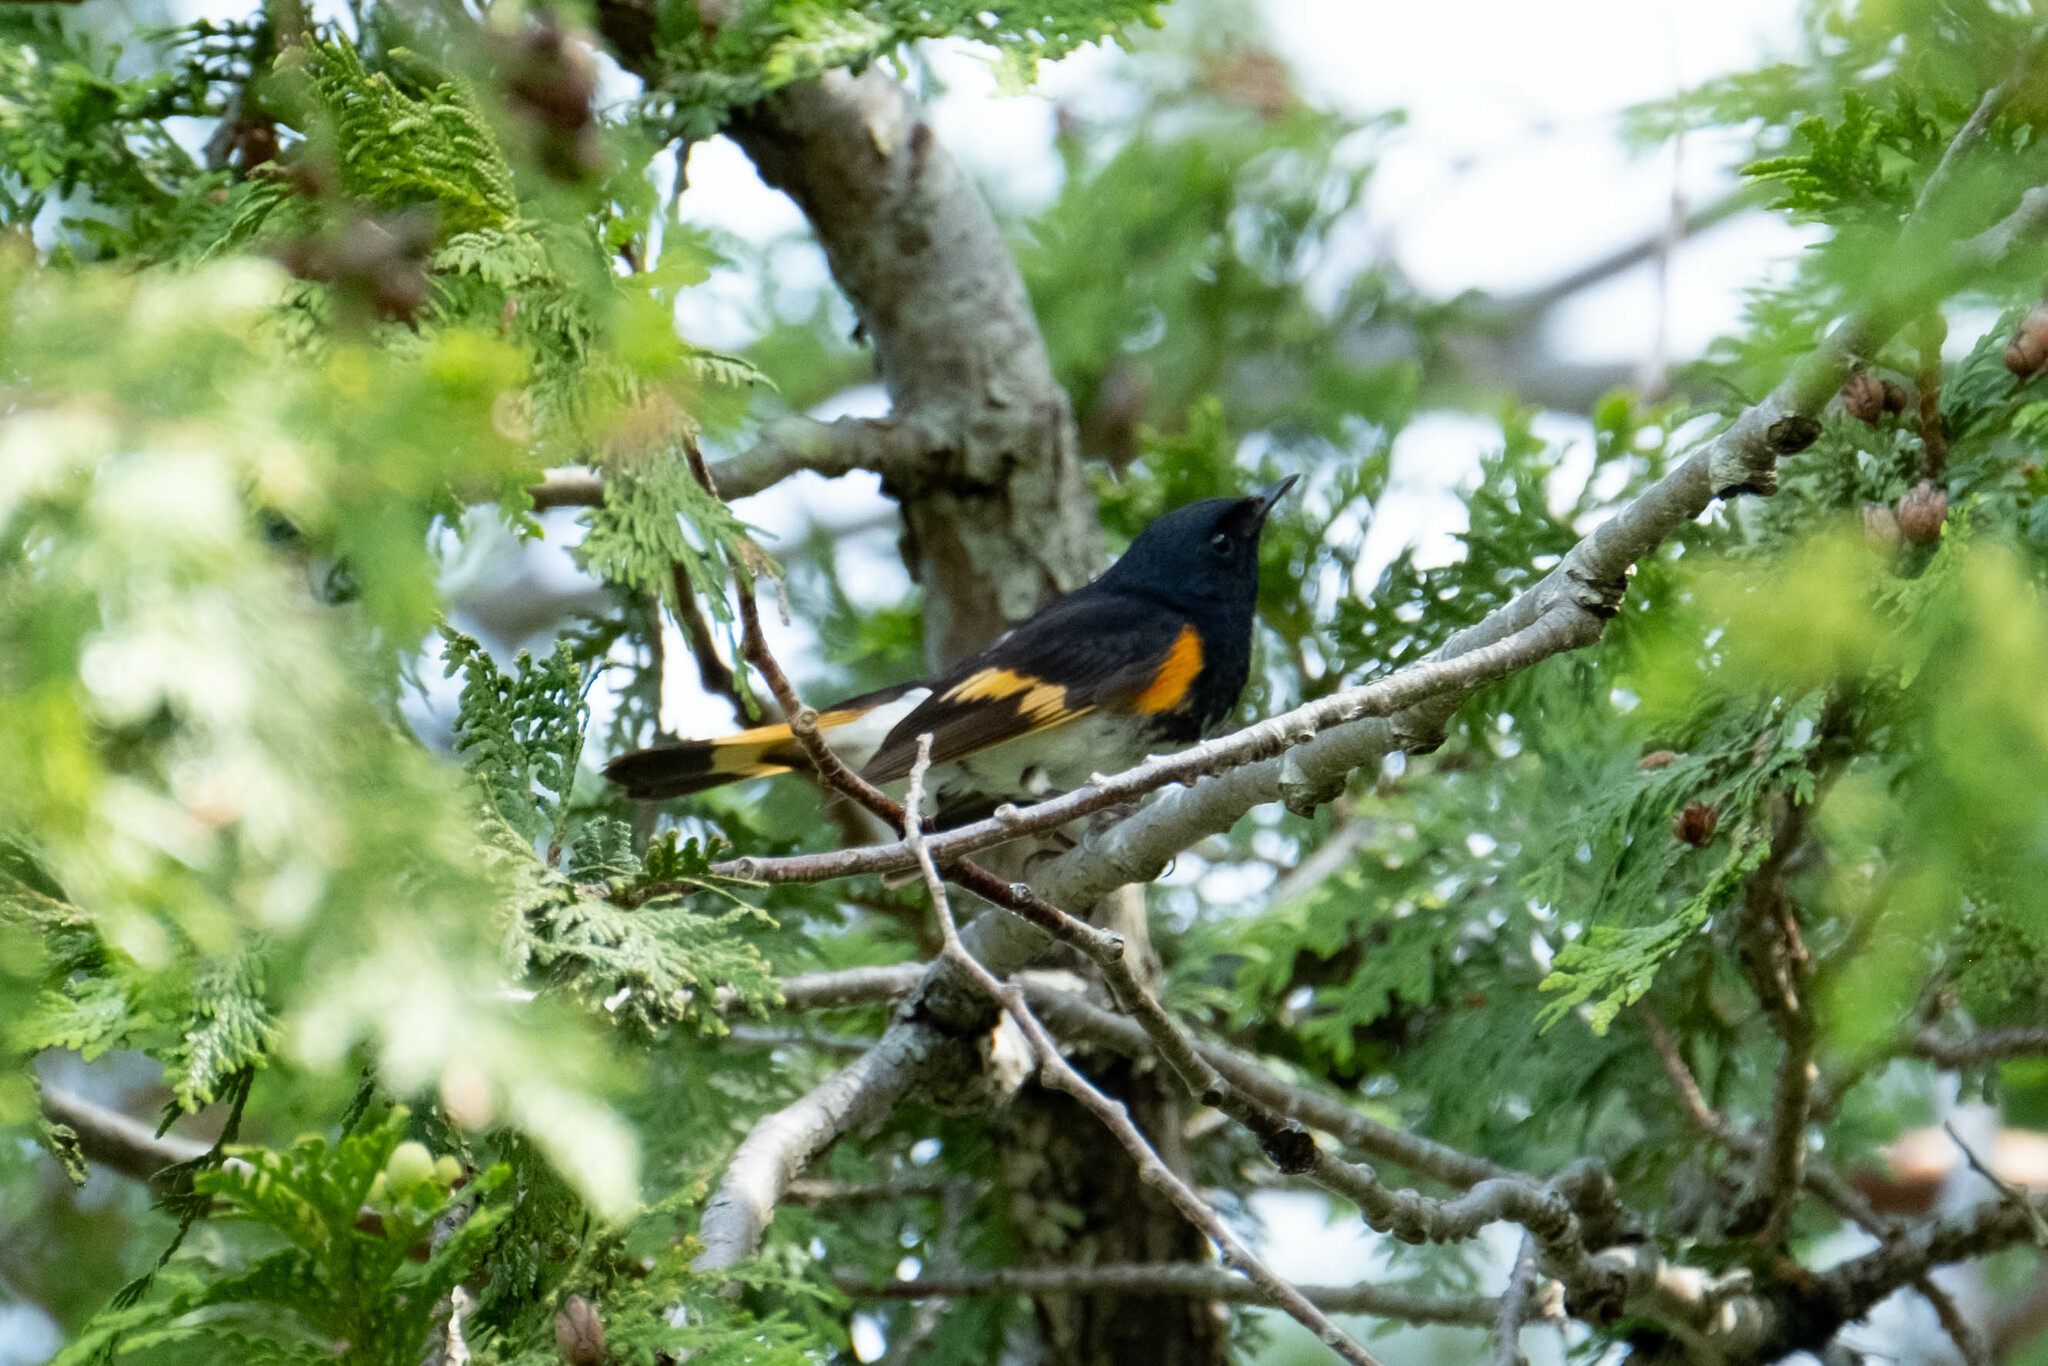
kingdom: Animalia
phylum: Chordata
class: Aves
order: Passeriformes
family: Parulidae
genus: Setophaga
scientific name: Setophaga ruticilla
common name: American redstart
